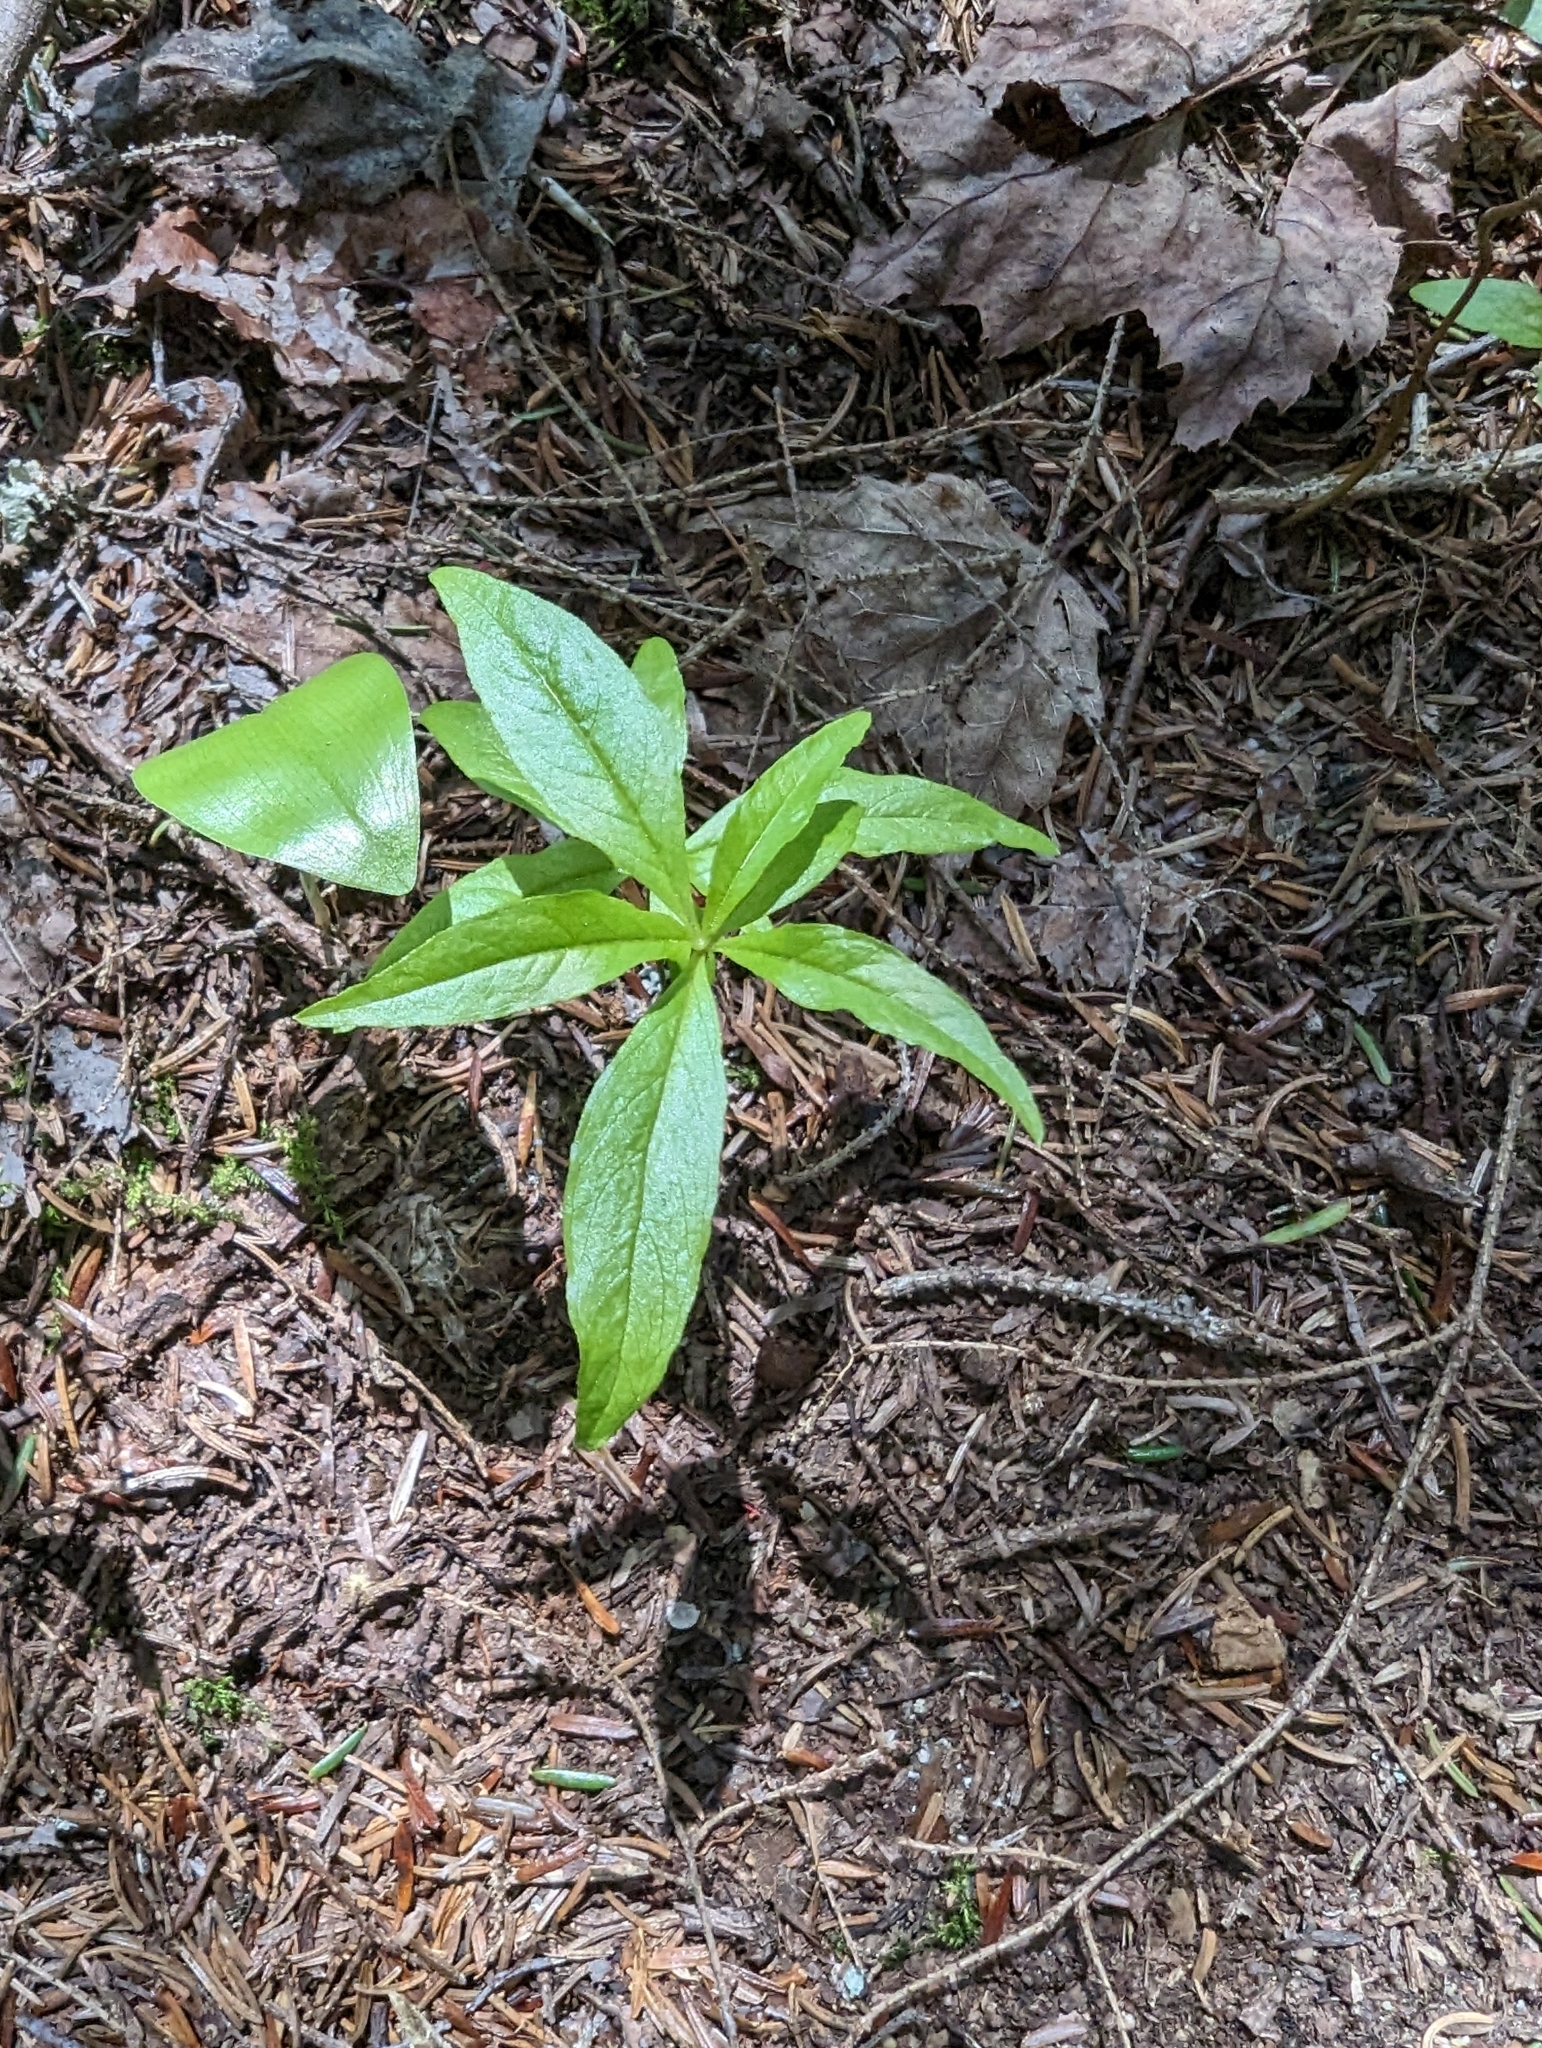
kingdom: Plantae
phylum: Tracheophyta
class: Magnoliopsida
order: Ericales
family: Primulaceae
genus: Lysimachia
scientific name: Lysimachia borealis
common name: American starflower
